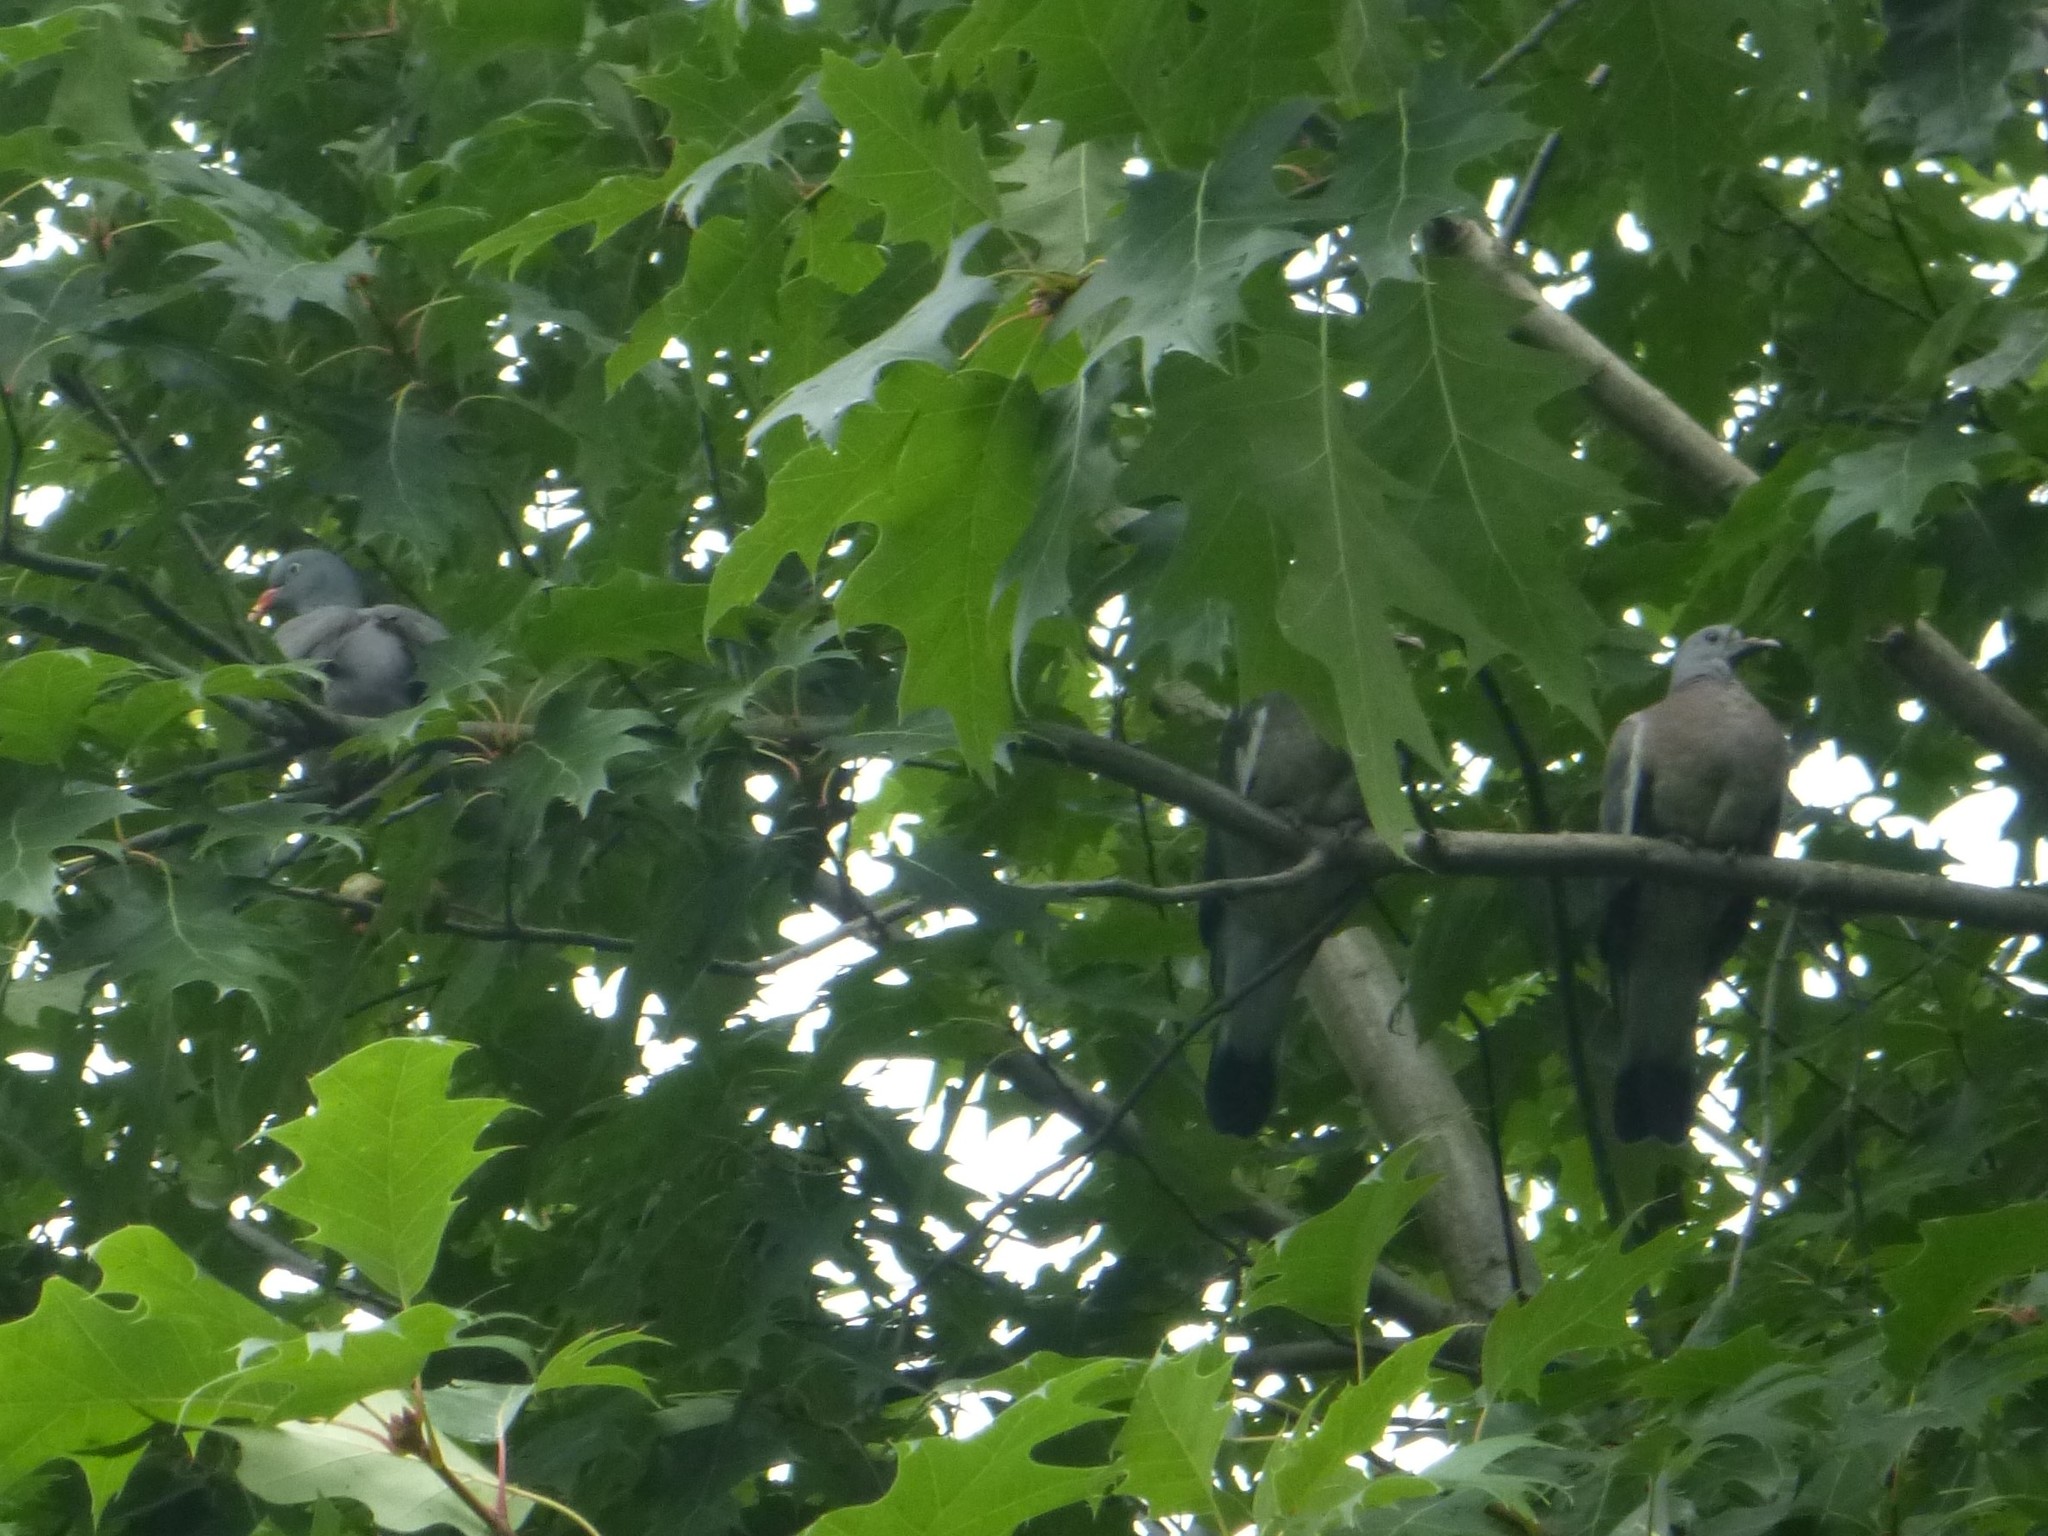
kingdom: Animalia
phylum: Chordata
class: Aves
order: Columbiformes
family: Columbidae
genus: Columba
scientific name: Columba palumbus
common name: Common wood pigeon
